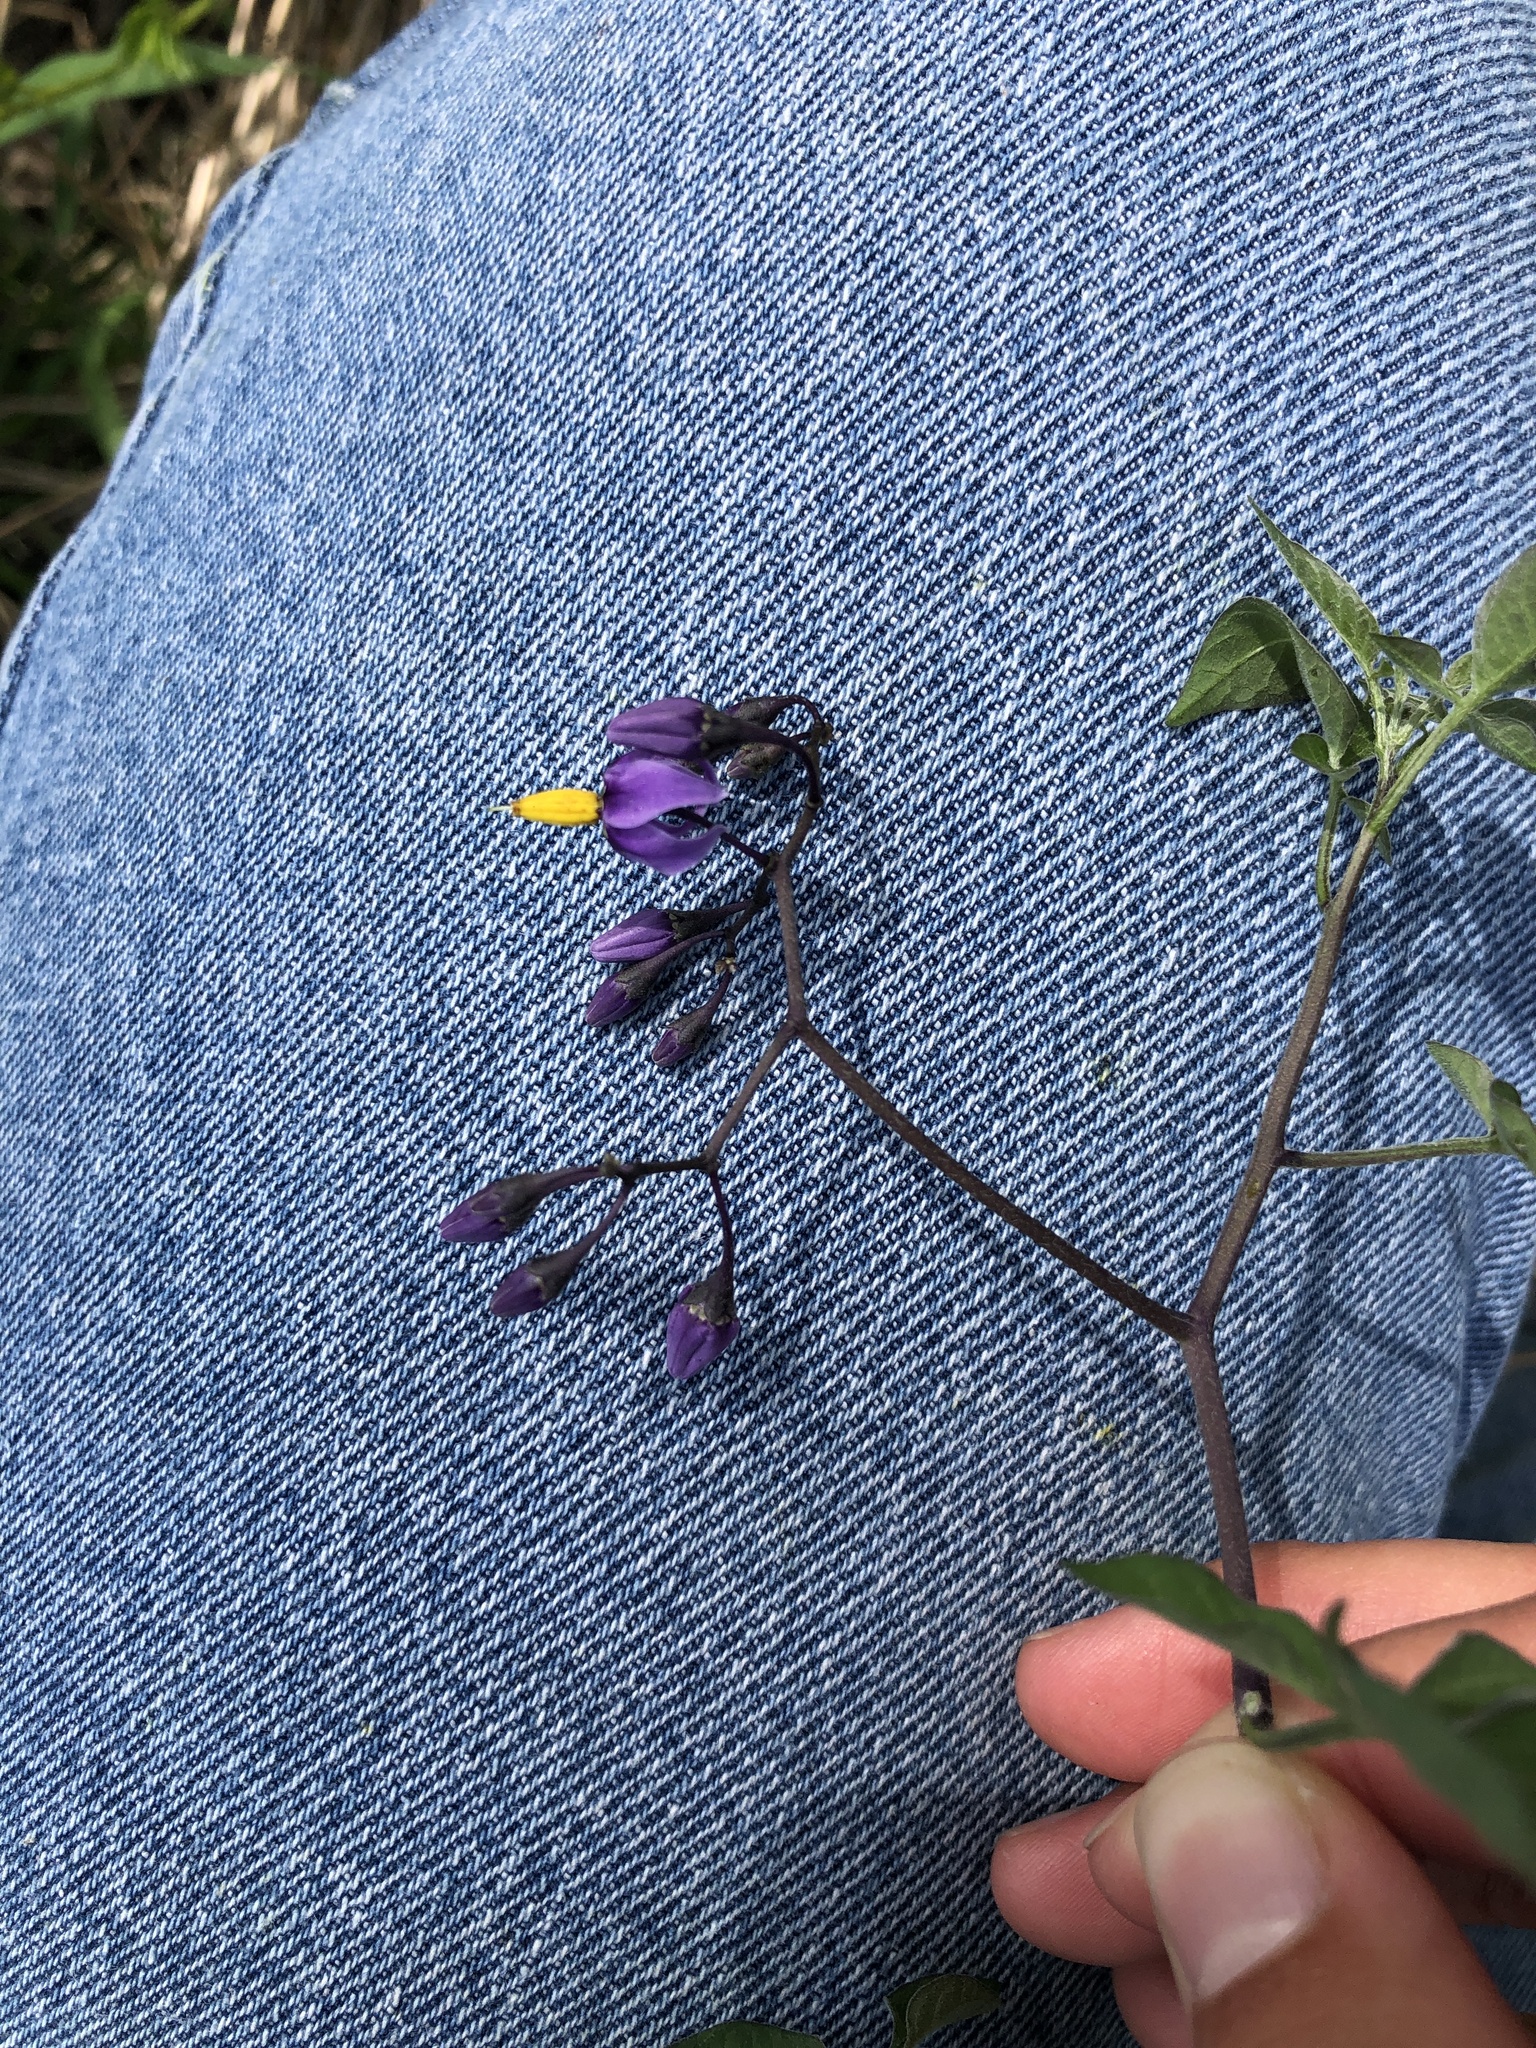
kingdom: Plantae
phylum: Tracheophyta
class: Magnoliopsida
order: Solanales
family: Solanaceae
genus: Solanum
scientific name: Solanum dulcamara
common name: Climbing nightshade
